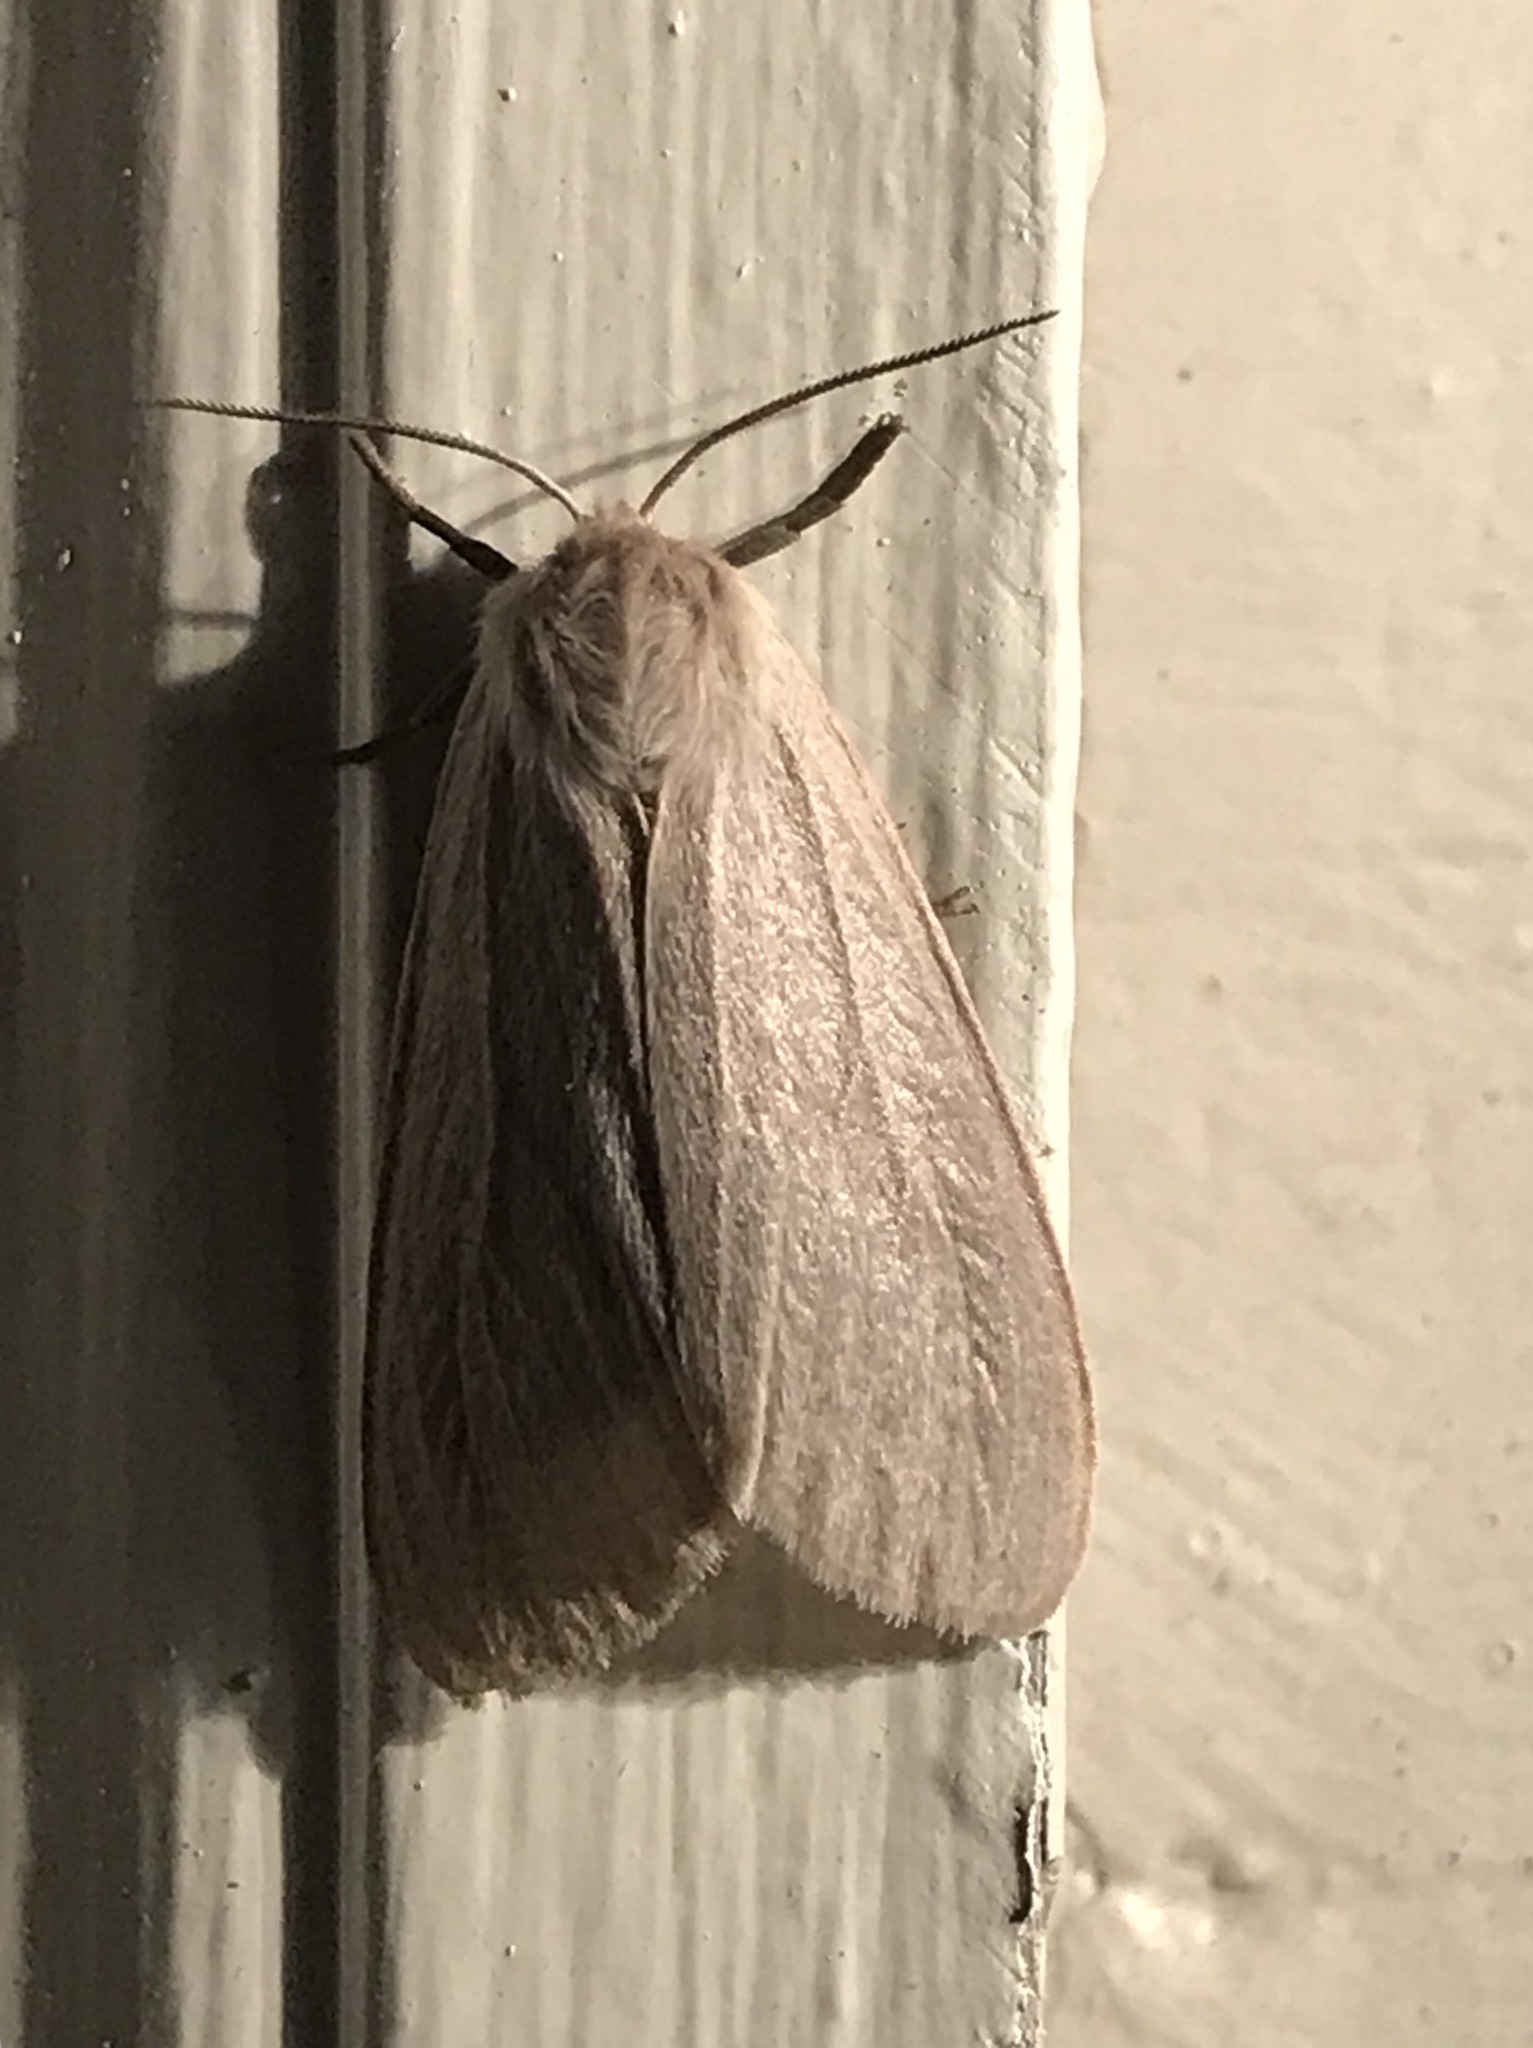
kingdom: Animalia
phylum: Arthropoda
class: Insecta
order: Lepidoptera
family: Erebidae
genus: Euchaetes
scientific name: Euchaetes egle
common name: Milkweed tussock moth
